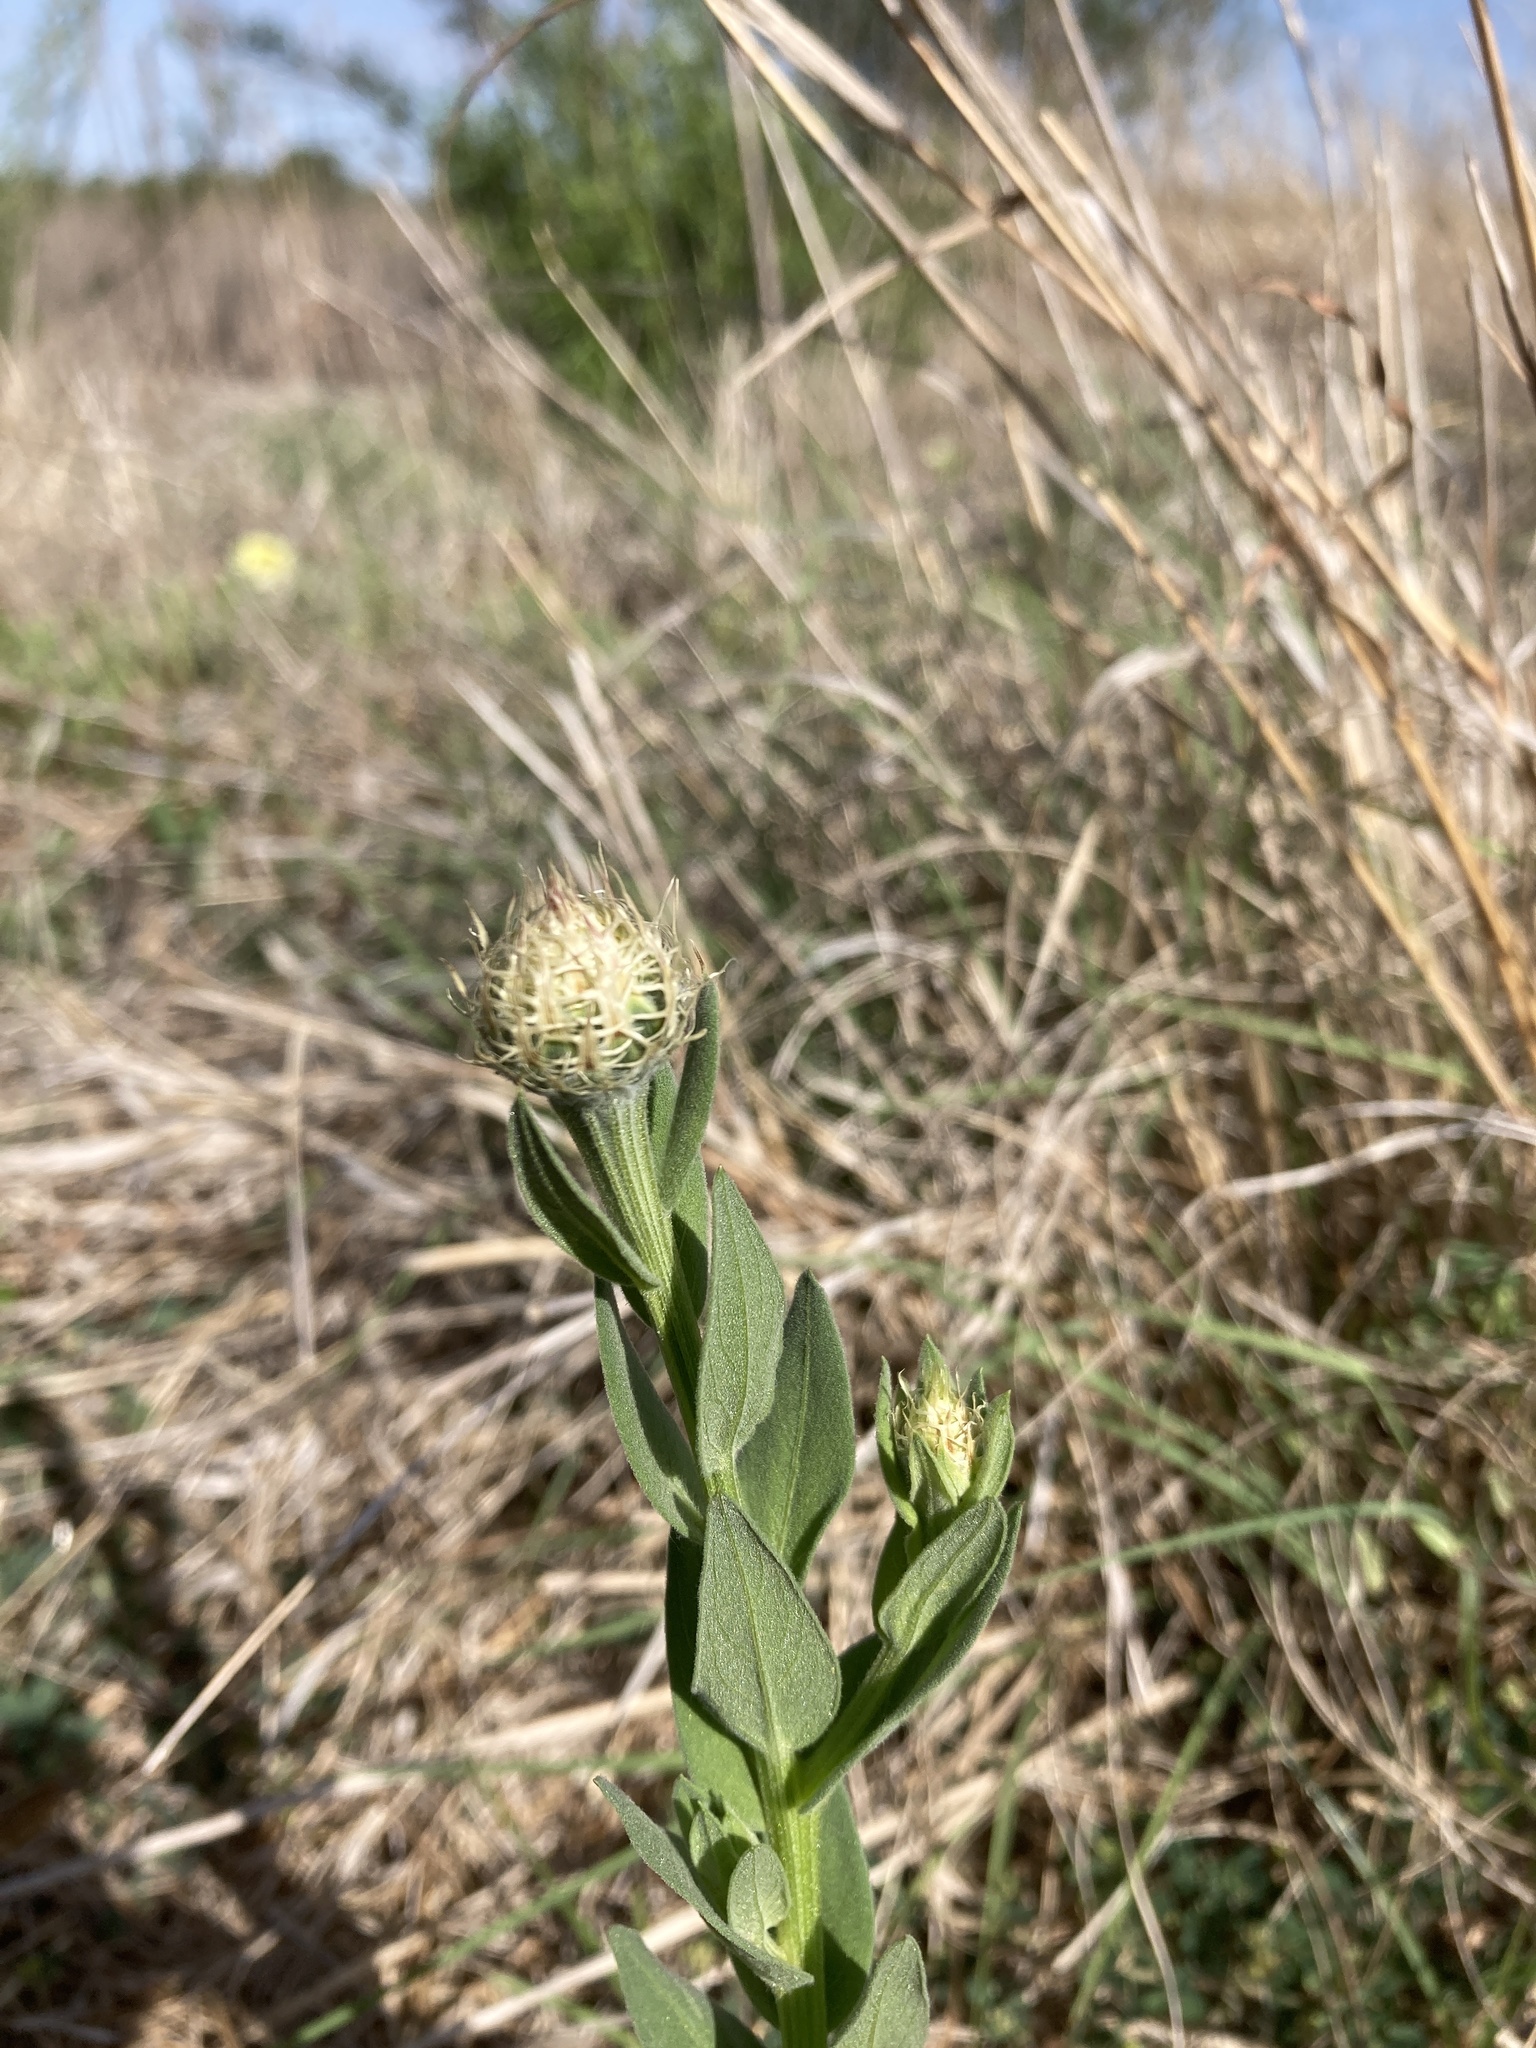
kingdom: Plantae
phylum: Tracheophyta
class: Magnoliopsida
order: Asterales
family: Asteraceae
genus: Plectocephalus
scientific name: Plectocephalus americanus
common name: American basket-flower
